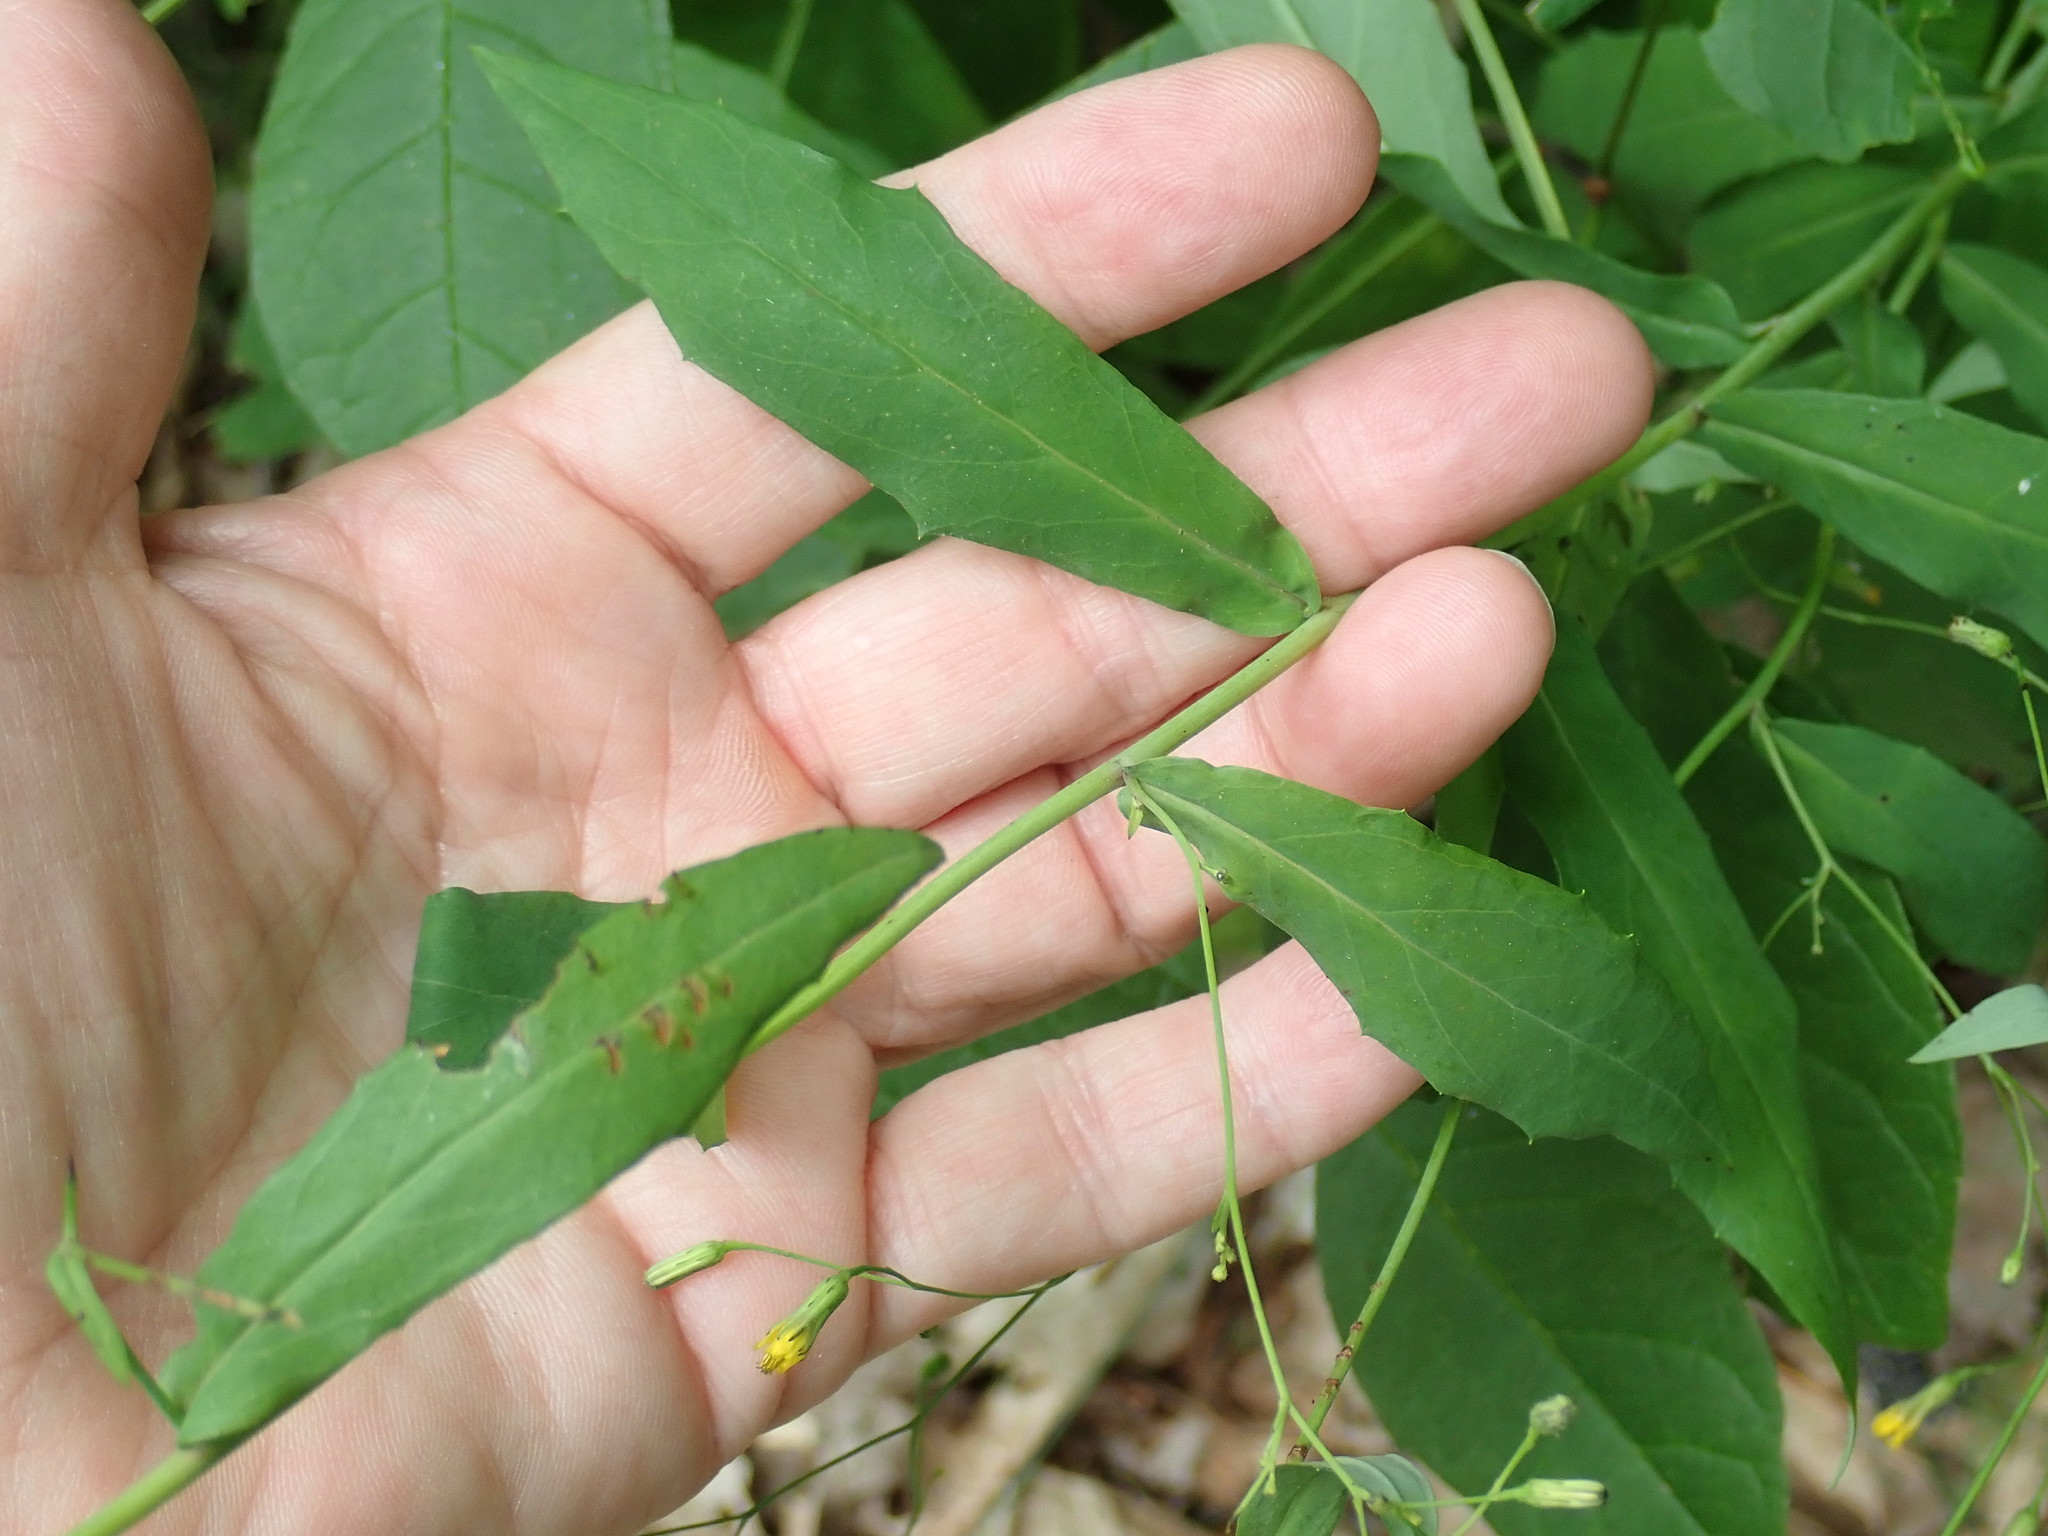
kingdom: Plantae
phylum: Tracheophyta
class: Magnoliopsida
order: Asterales
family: Asteraceae
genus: Hieracium
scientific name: Hieracium paniculatum
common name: Allegheny hawkweed
